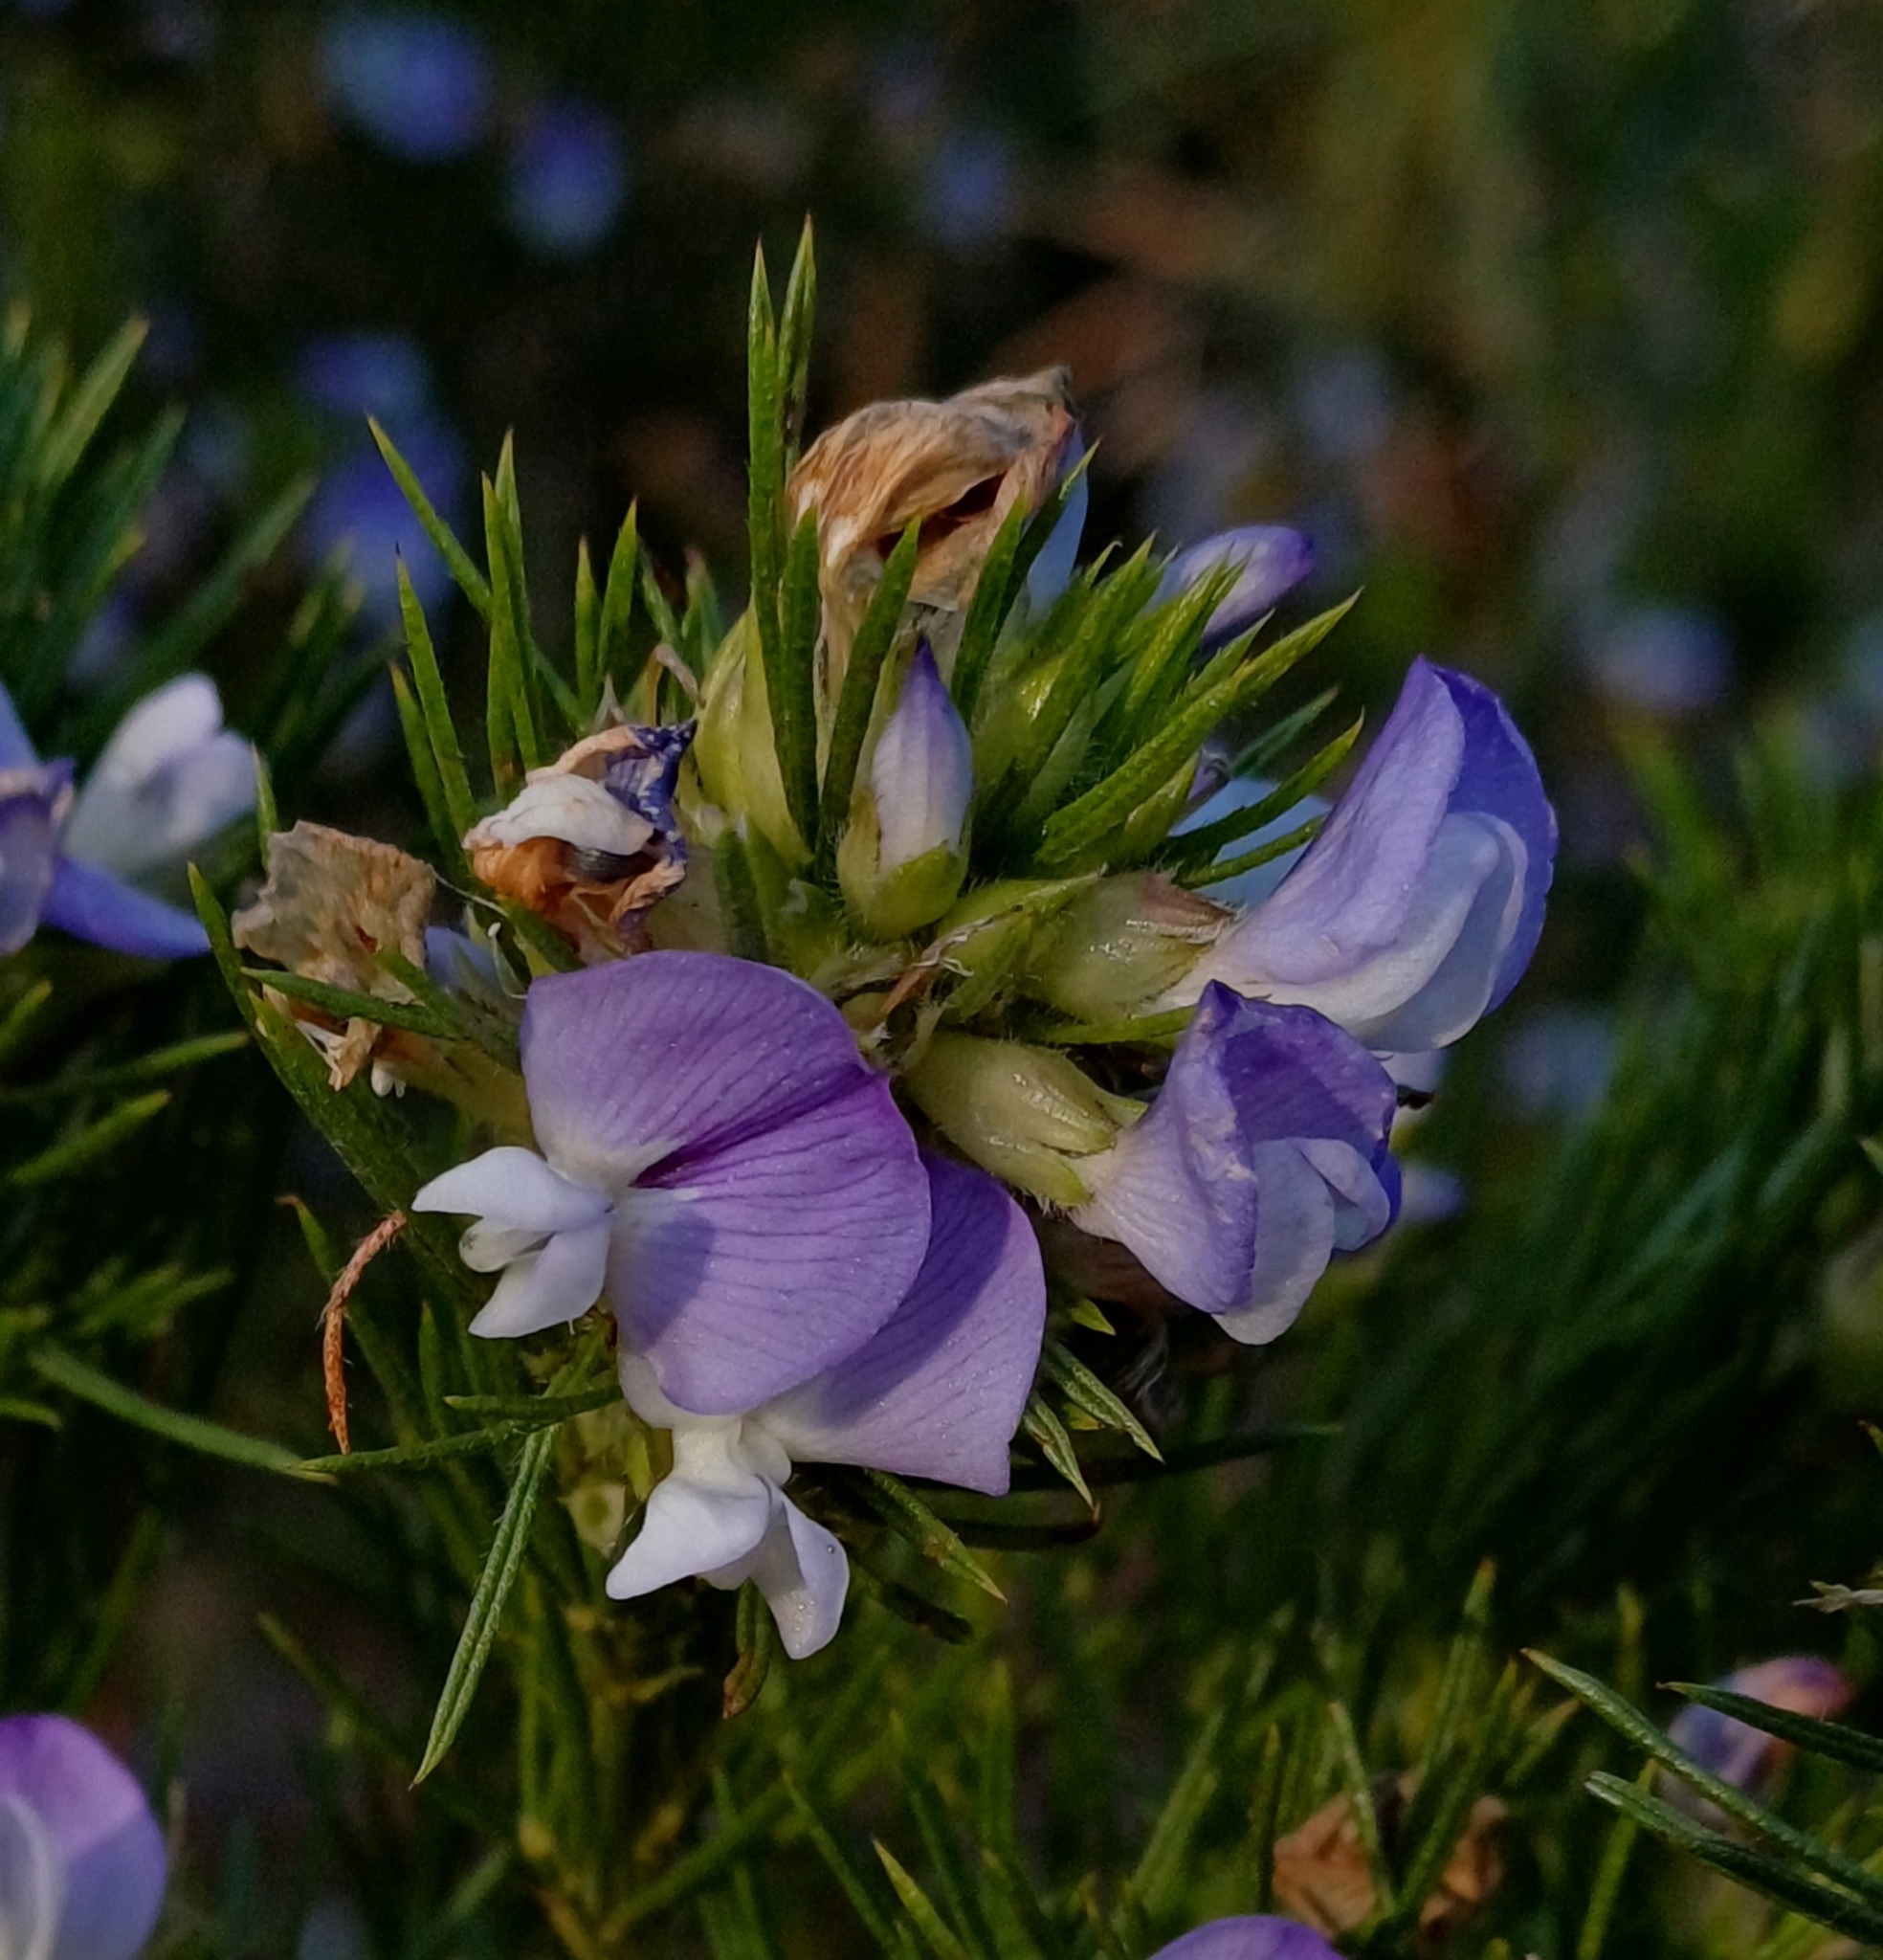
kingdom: Plantae
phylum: Tracheophyta
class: Magnoliopsida
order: Fabales
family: Fabaceae
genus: Psoralea
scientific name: Psoralea pinnata
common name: African scurfpea
